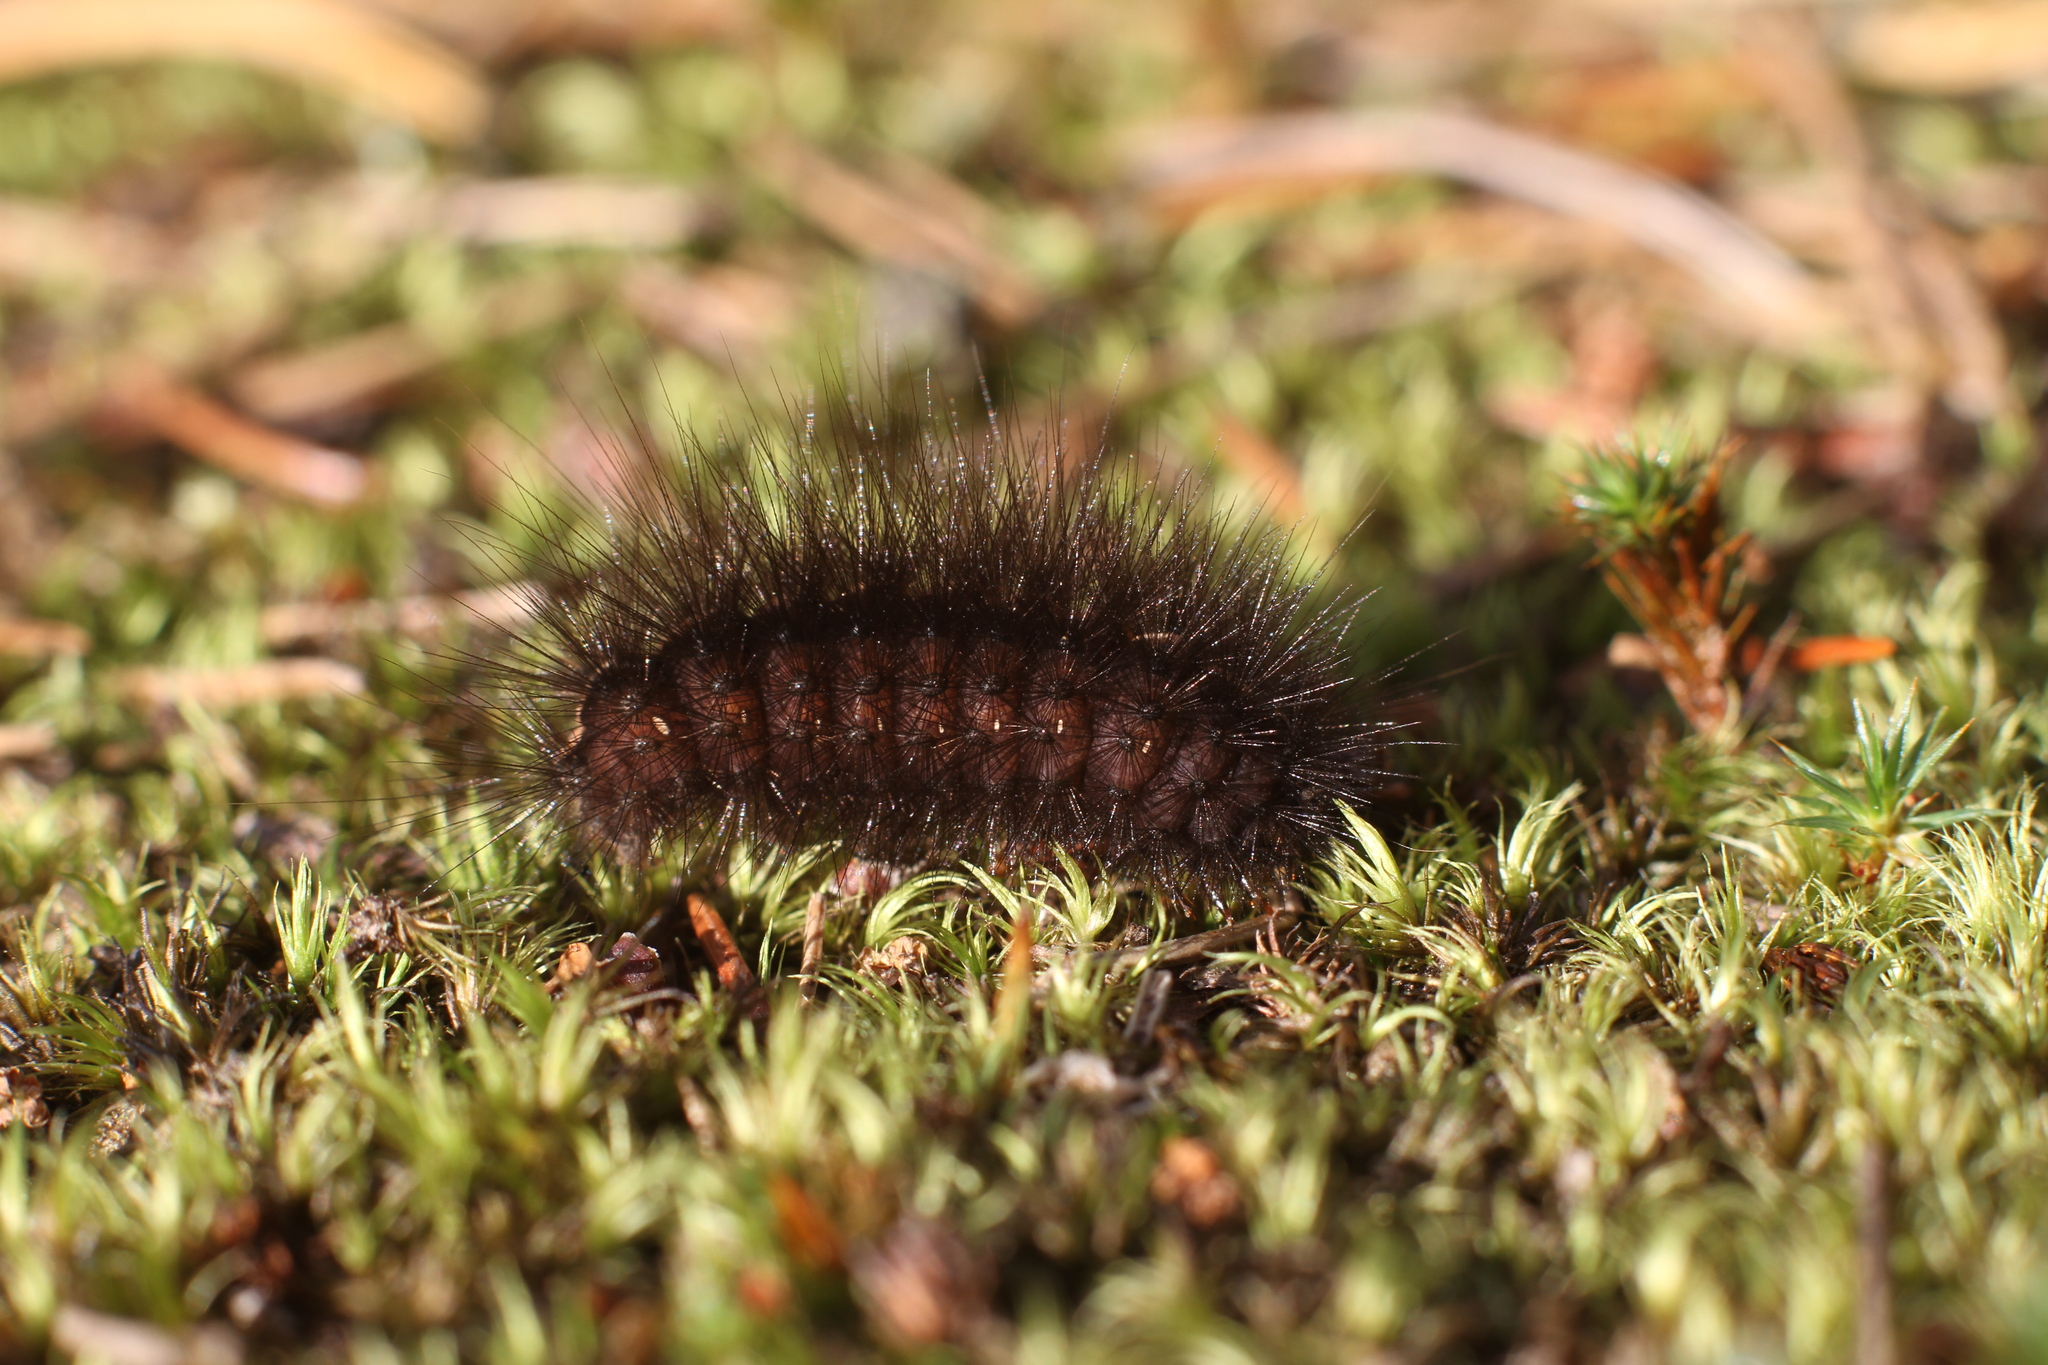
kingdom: Animalia
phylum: Arthropoda
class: Insecta
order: Lepidoptera
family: Erebidae
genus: Spilosoma
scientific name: Spilosoma lubricipeda
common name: White ermine
